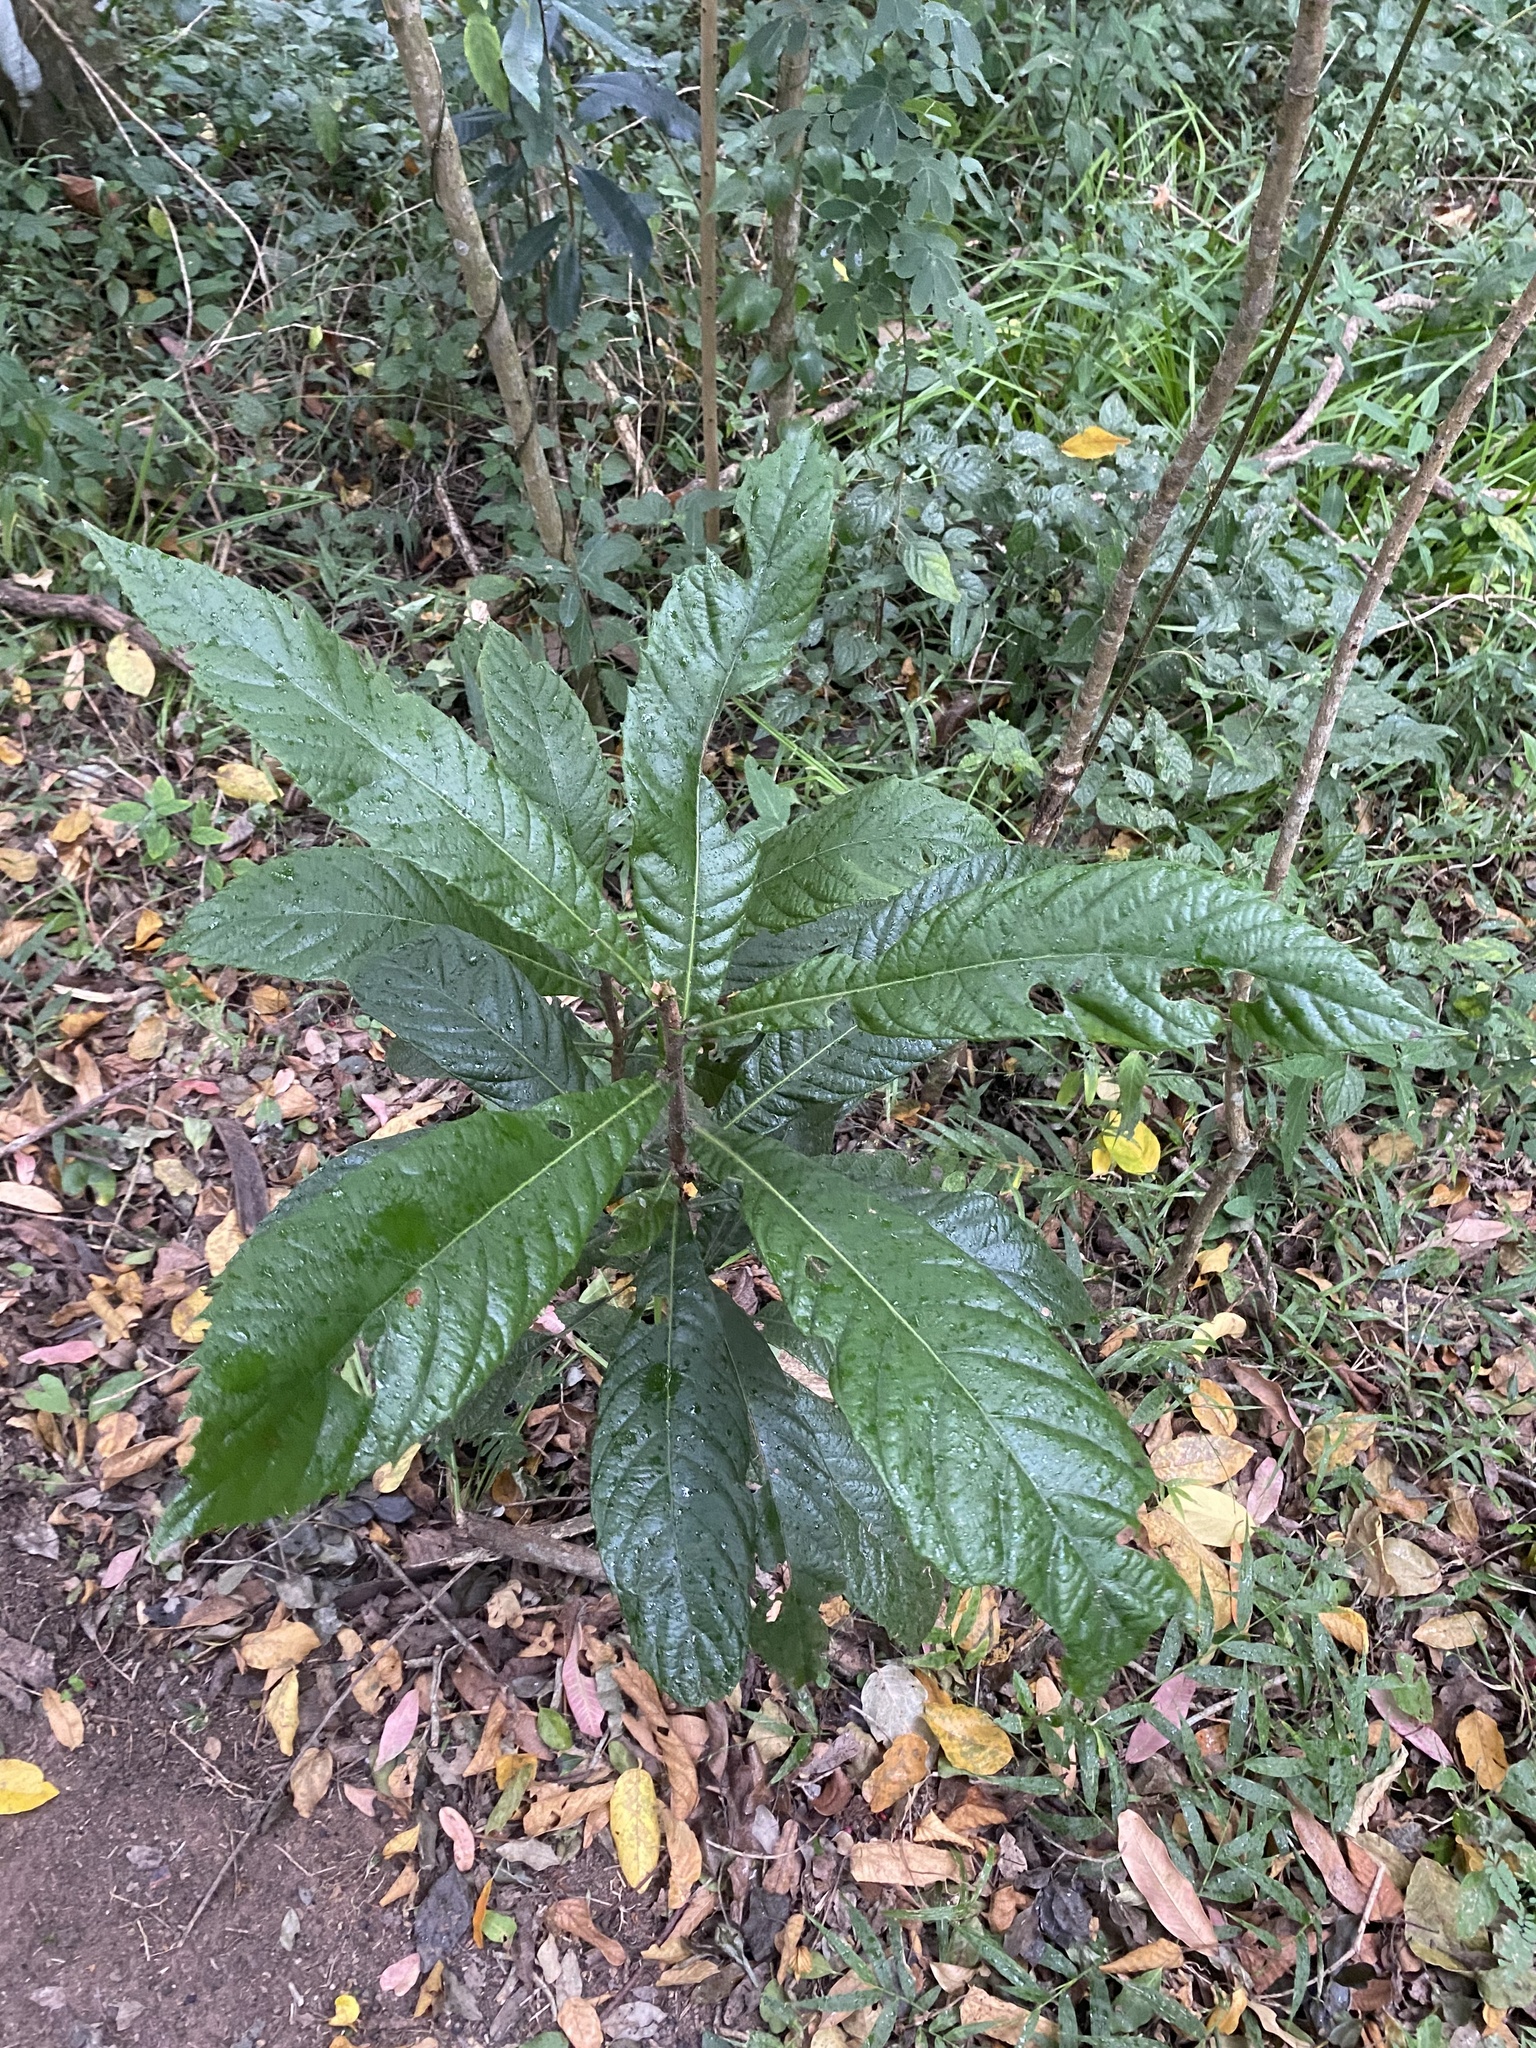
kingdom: Plantae
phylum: Tracheophyta
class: Magnoliopsida
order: Rosales
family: Rosaceae
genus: Rhaphiolepis
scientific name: Rhaphiolepis bibas
